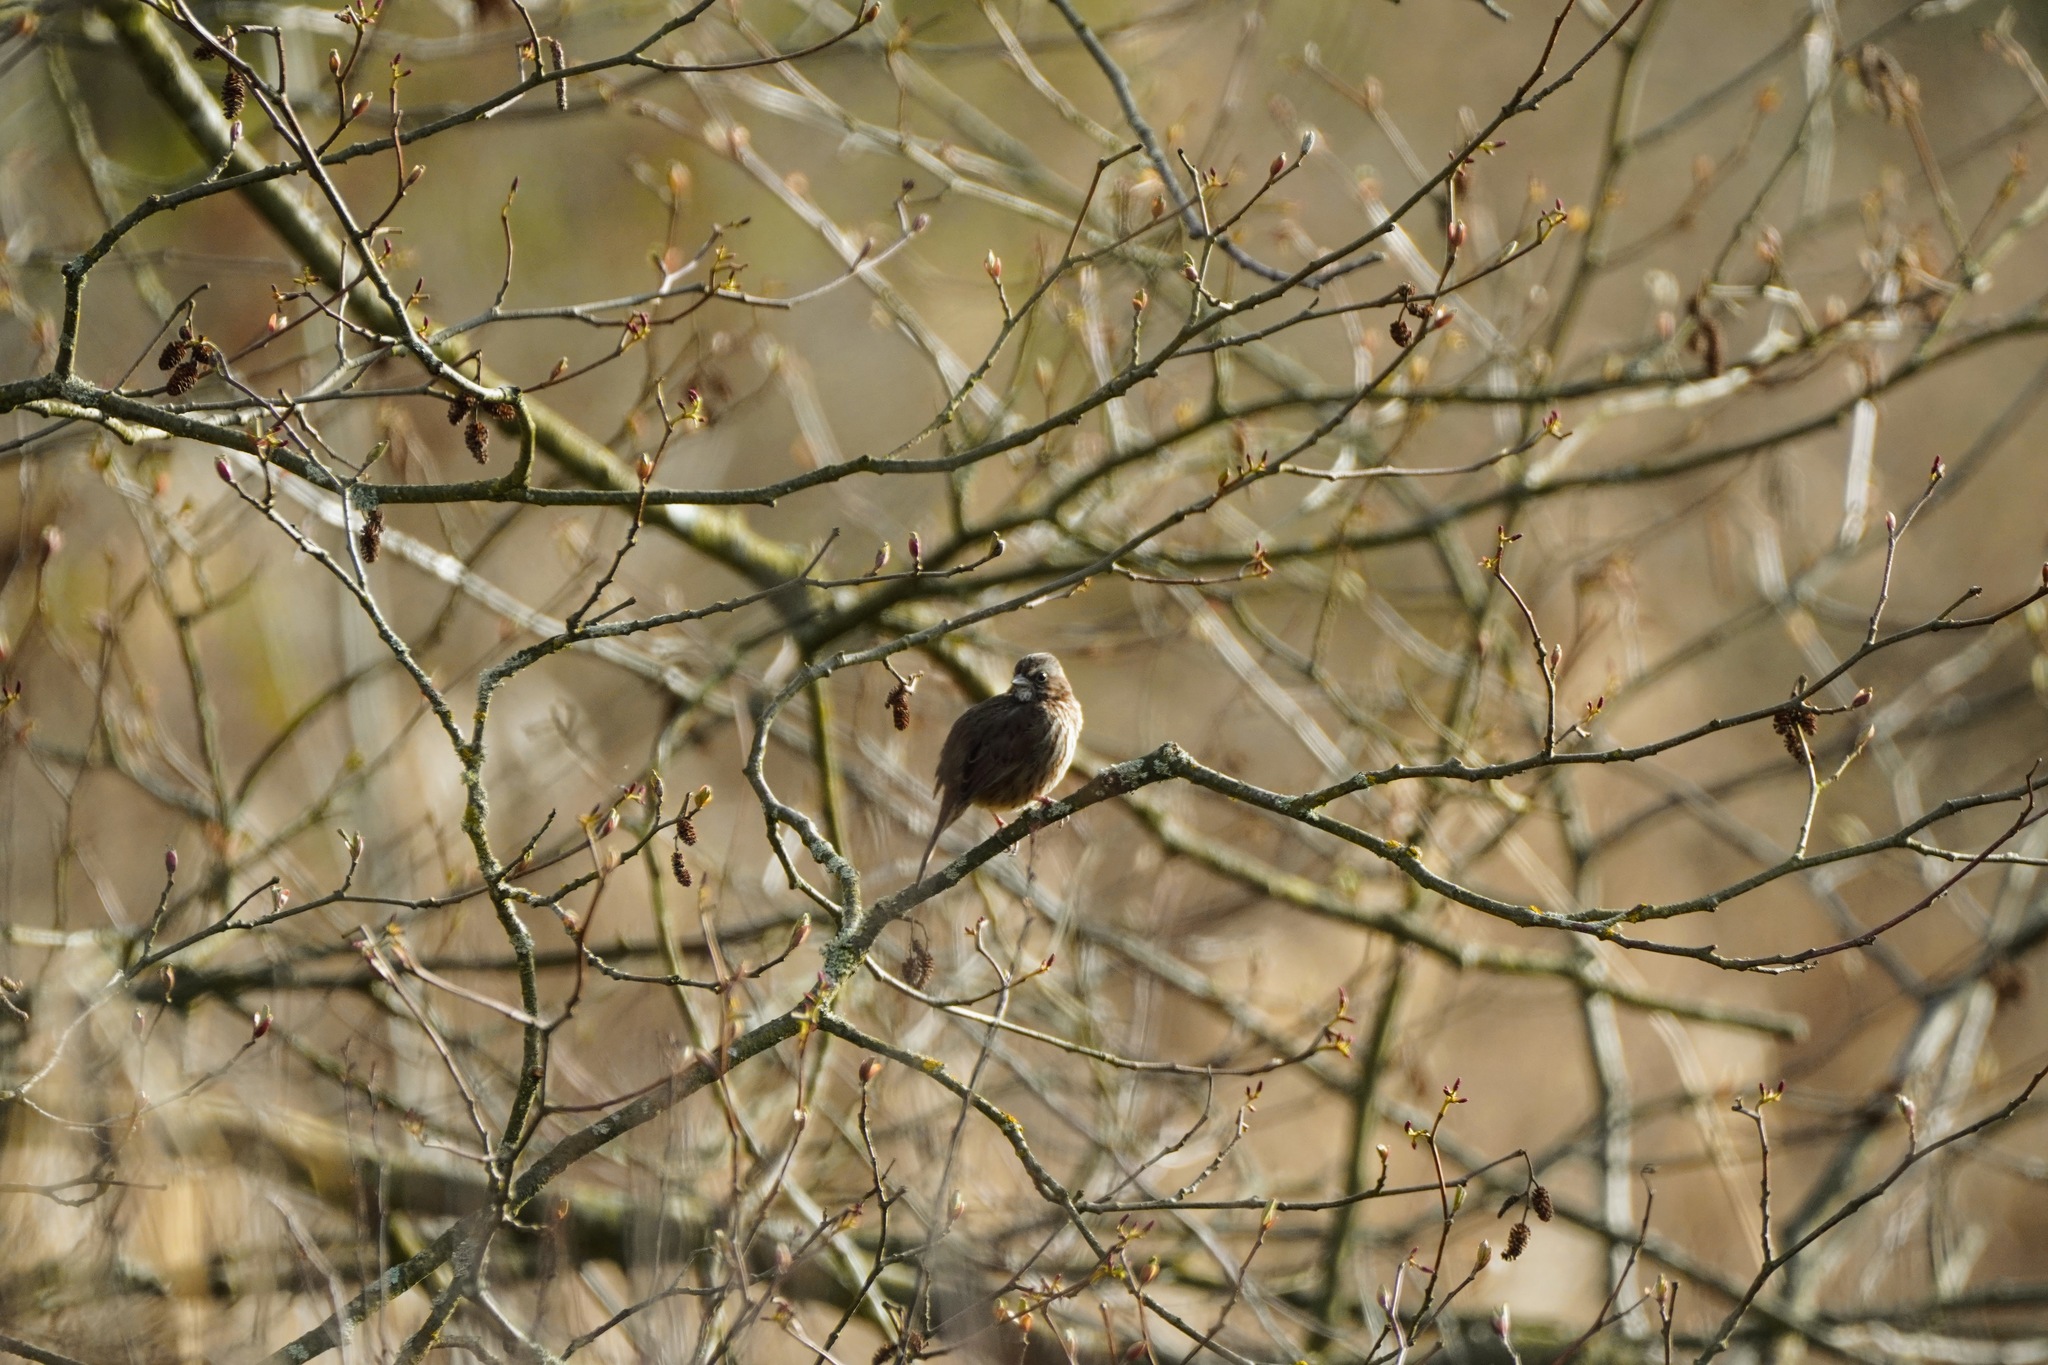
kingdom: Animalia
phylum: Chordata
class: Aves
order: Passeriformes
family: Passerellidae
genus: Melospiza
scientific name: Melospiza melodia
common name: Song sparrow
